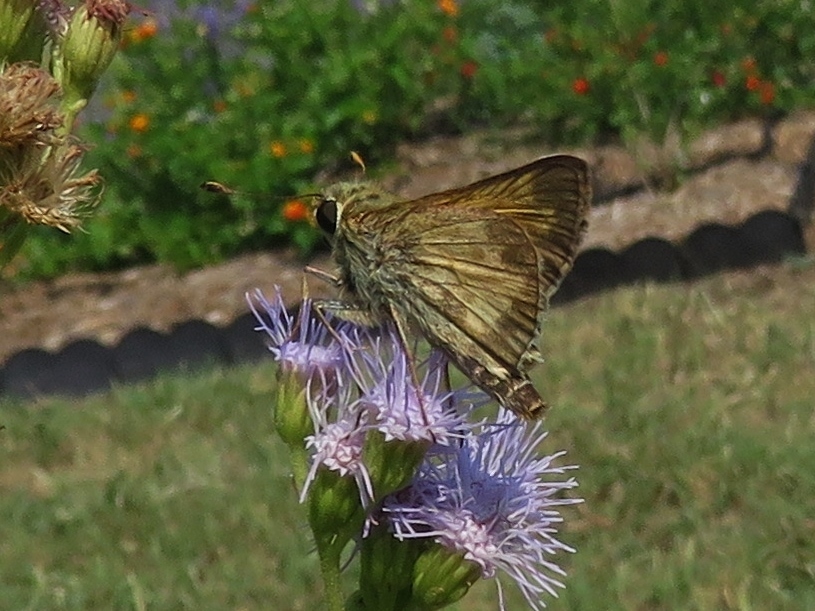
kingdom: Animalia
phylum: Arthropoda
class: Insecta
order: Lepidoptera
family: Hesperiidae
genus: Atalopedes
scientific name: Atalopedes
